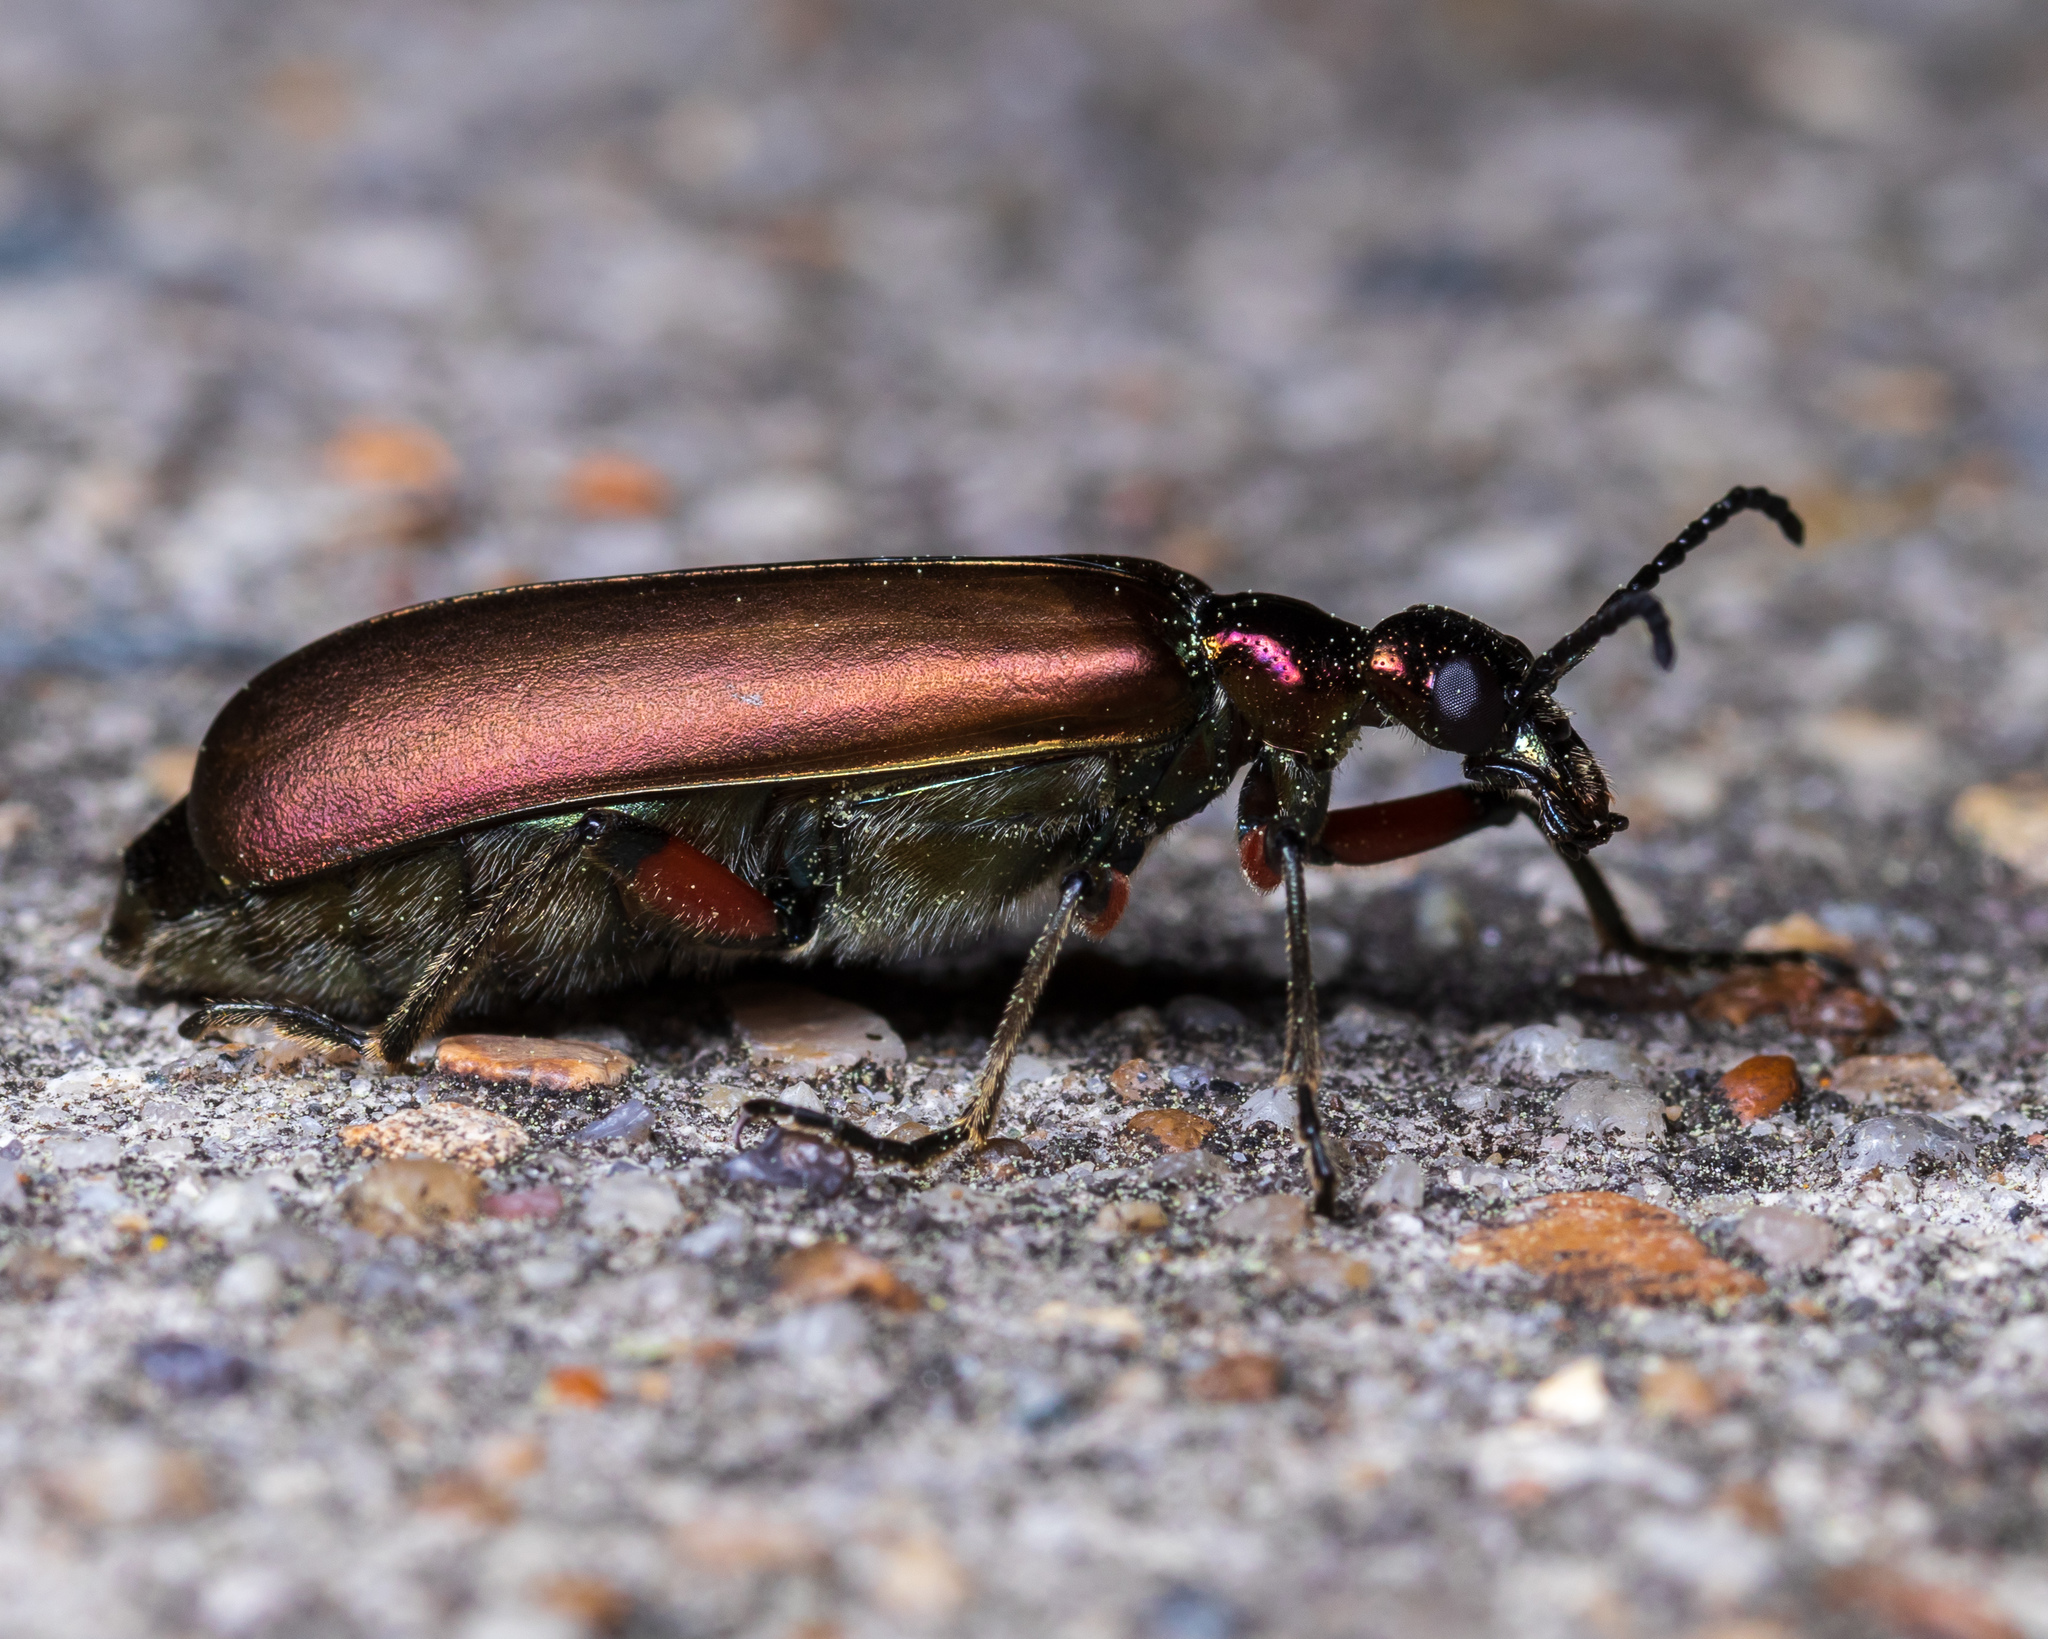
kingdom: Animalia
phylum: Arthropoda
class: Insecta
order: Coleoptera
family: Meloidae
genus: Lytta
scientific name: Lytta polita
